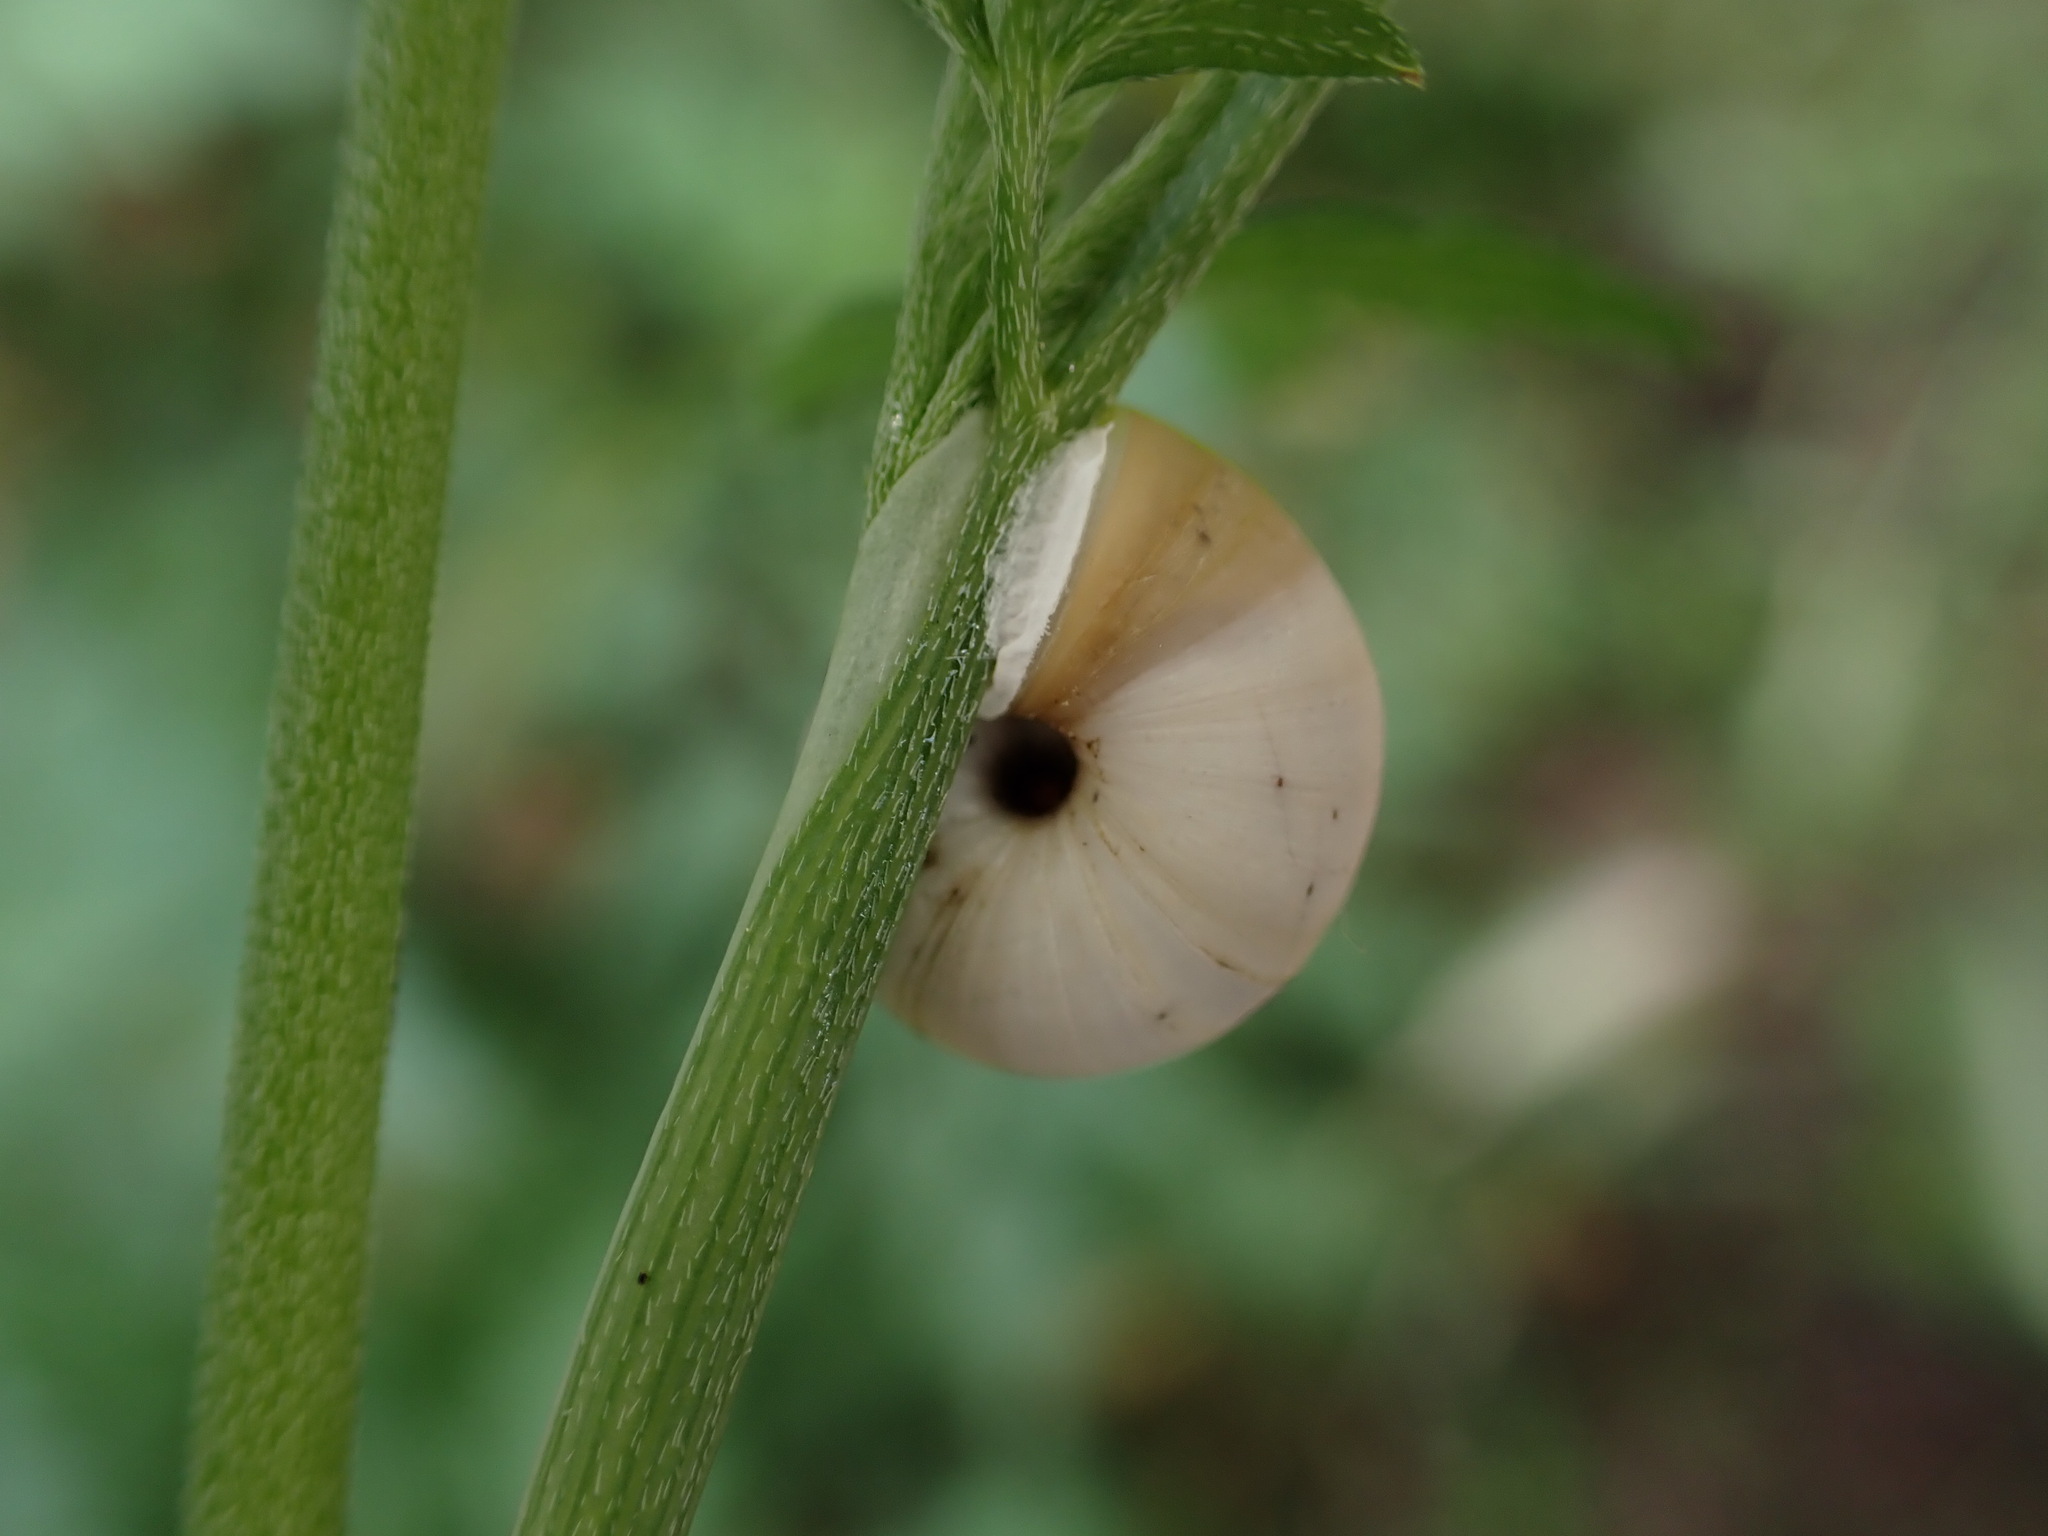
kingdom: Animalia
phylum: Mollusca
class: Gastropoda
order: Stylommatophora
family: Helicidae
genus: Theba
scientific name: Theba pisana
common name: White snail
